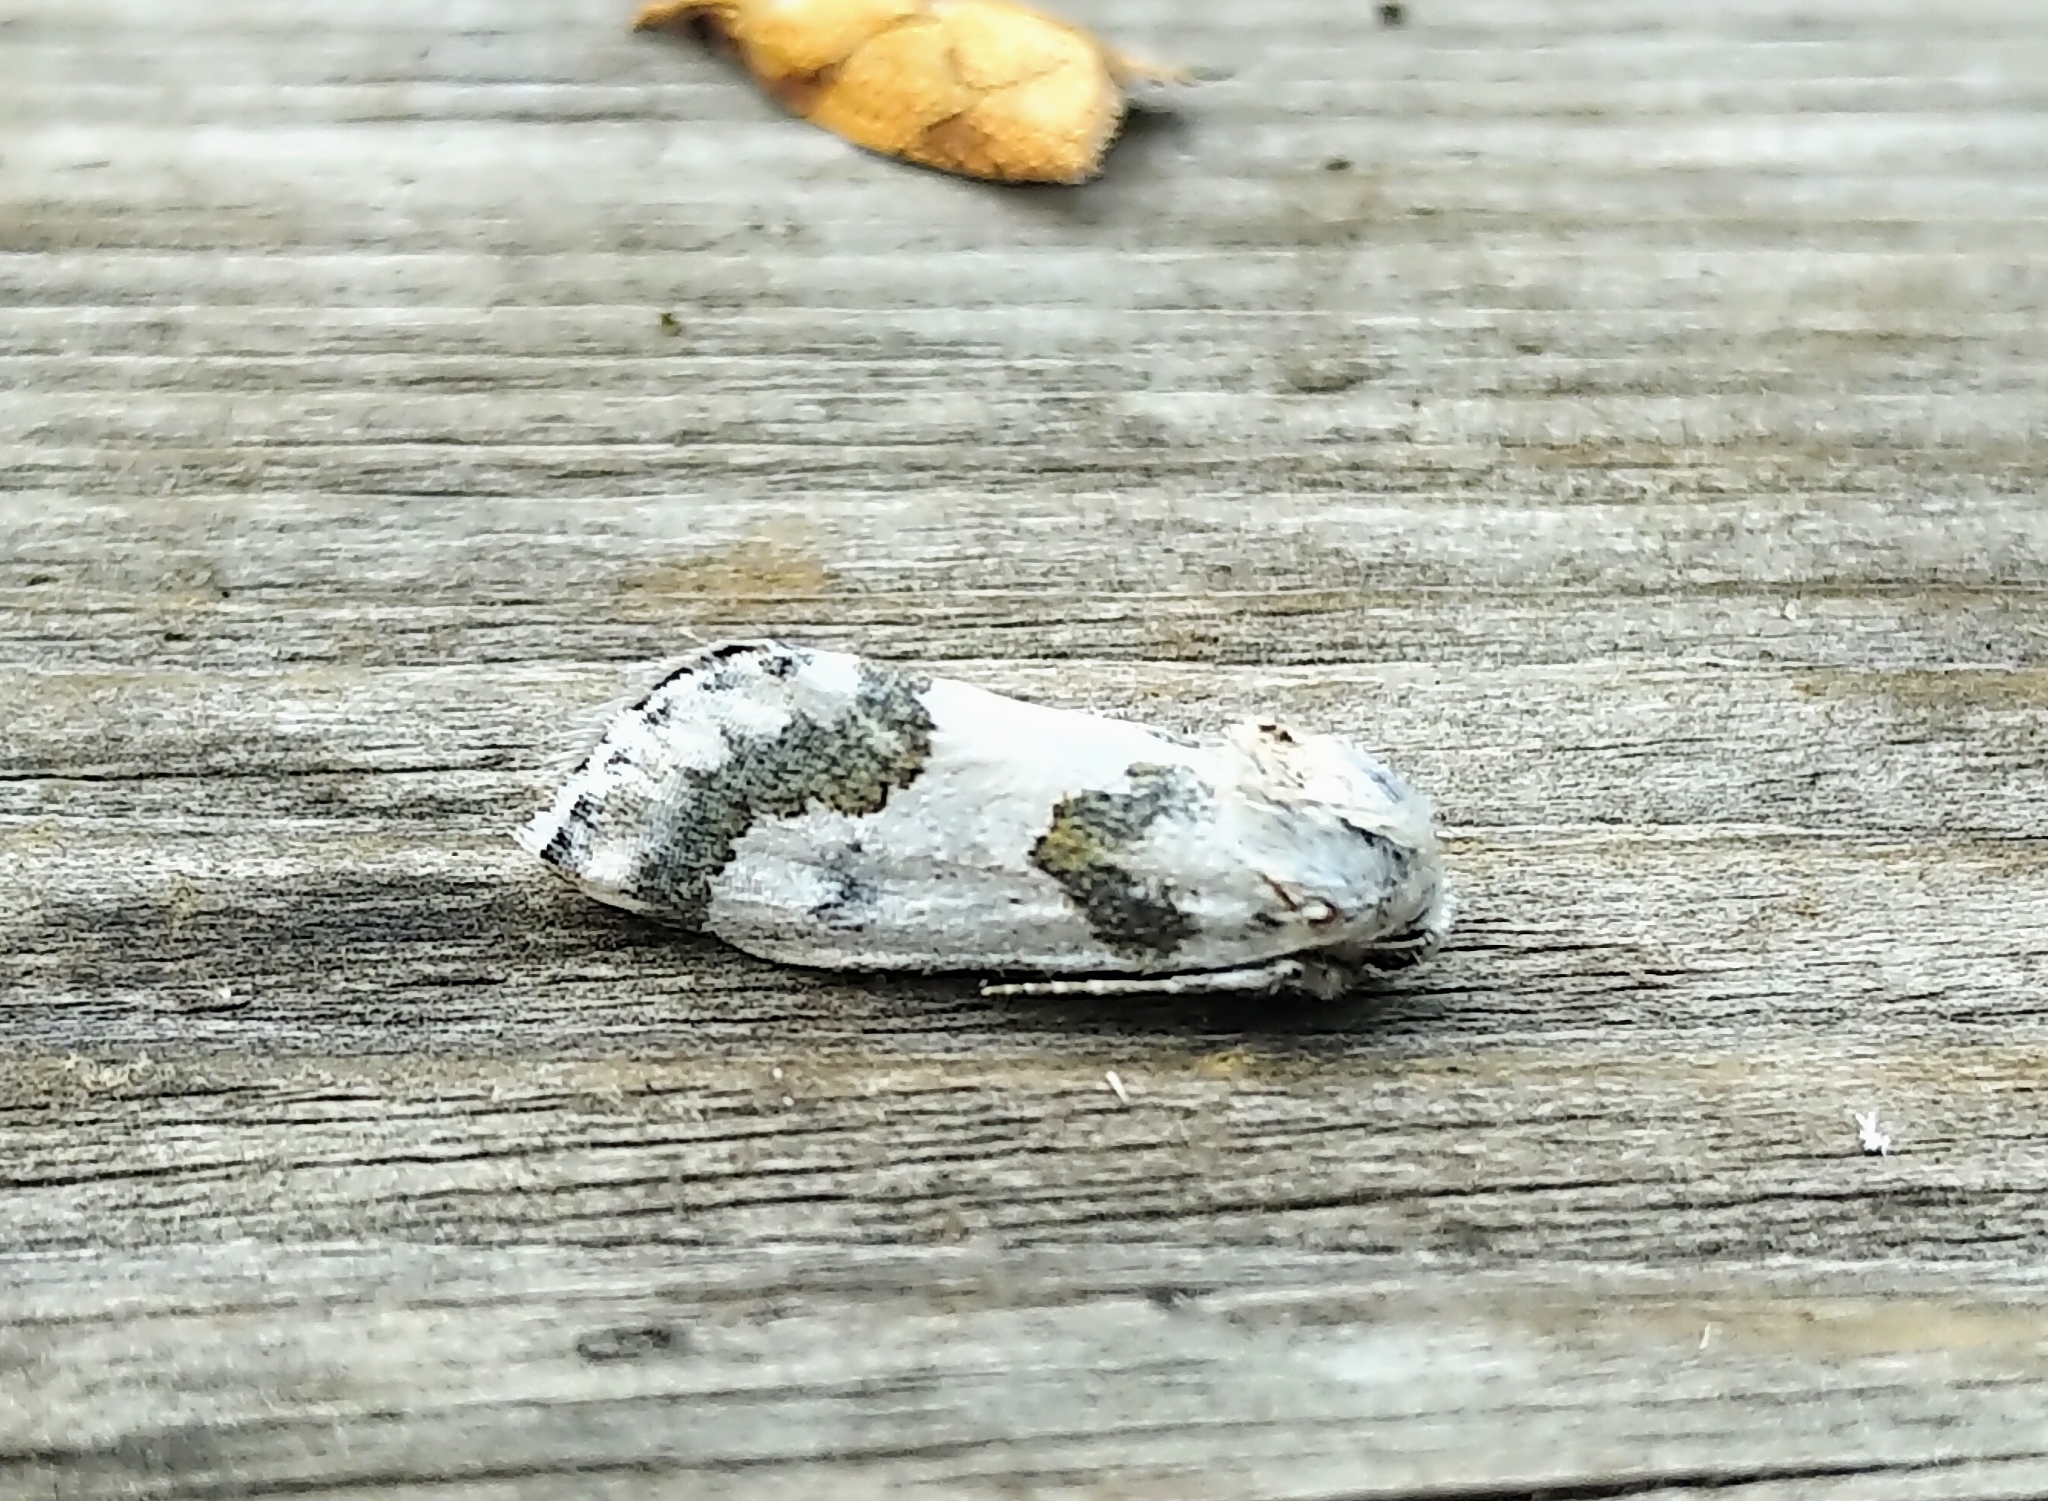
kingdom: Animalia
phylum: Arthropoda
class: Insecta
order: Lepidoptera
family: Noctuidae
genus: Schinia
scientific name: Schinia cumatilis
